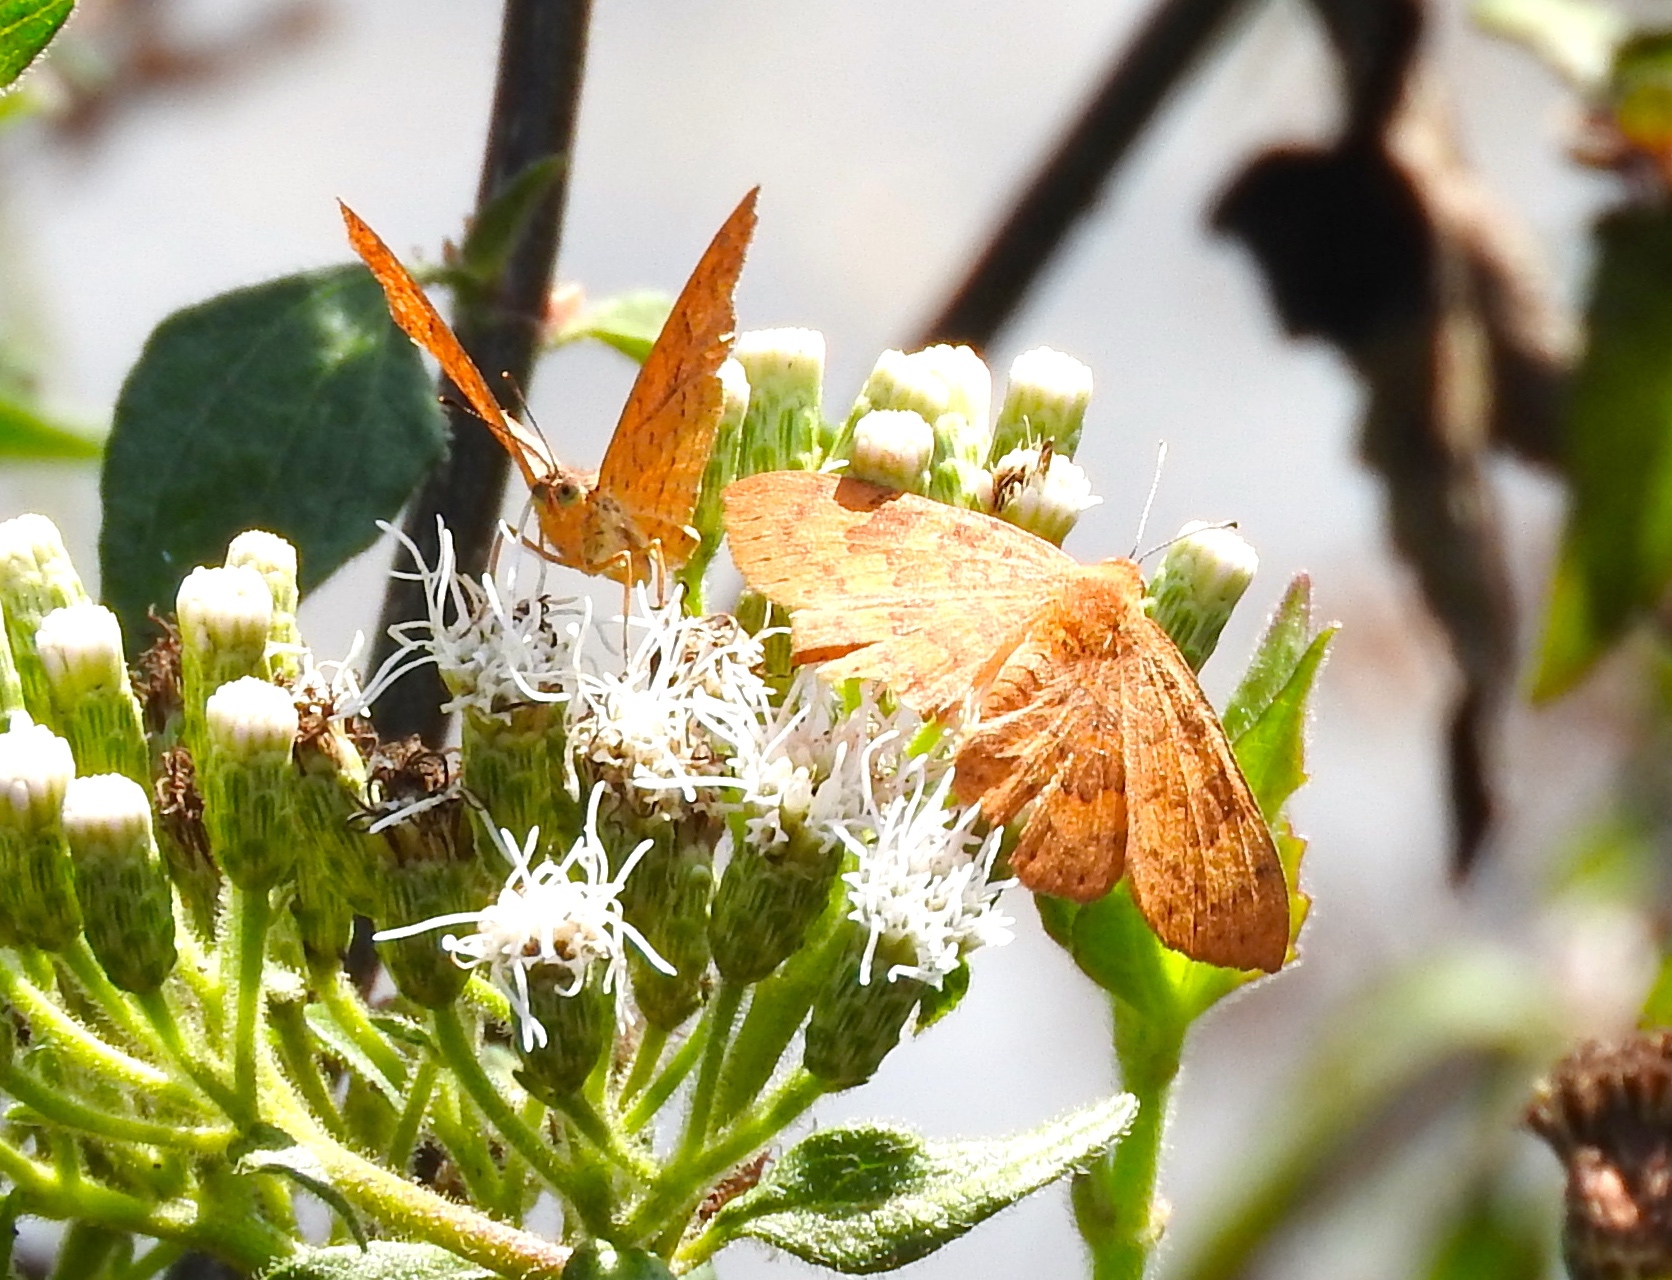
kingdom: Animalia
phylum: Arthropoda
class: Insecta
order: Lepidoptera
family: Lycaenidae
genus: Emesis
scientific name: Emesis mandana
